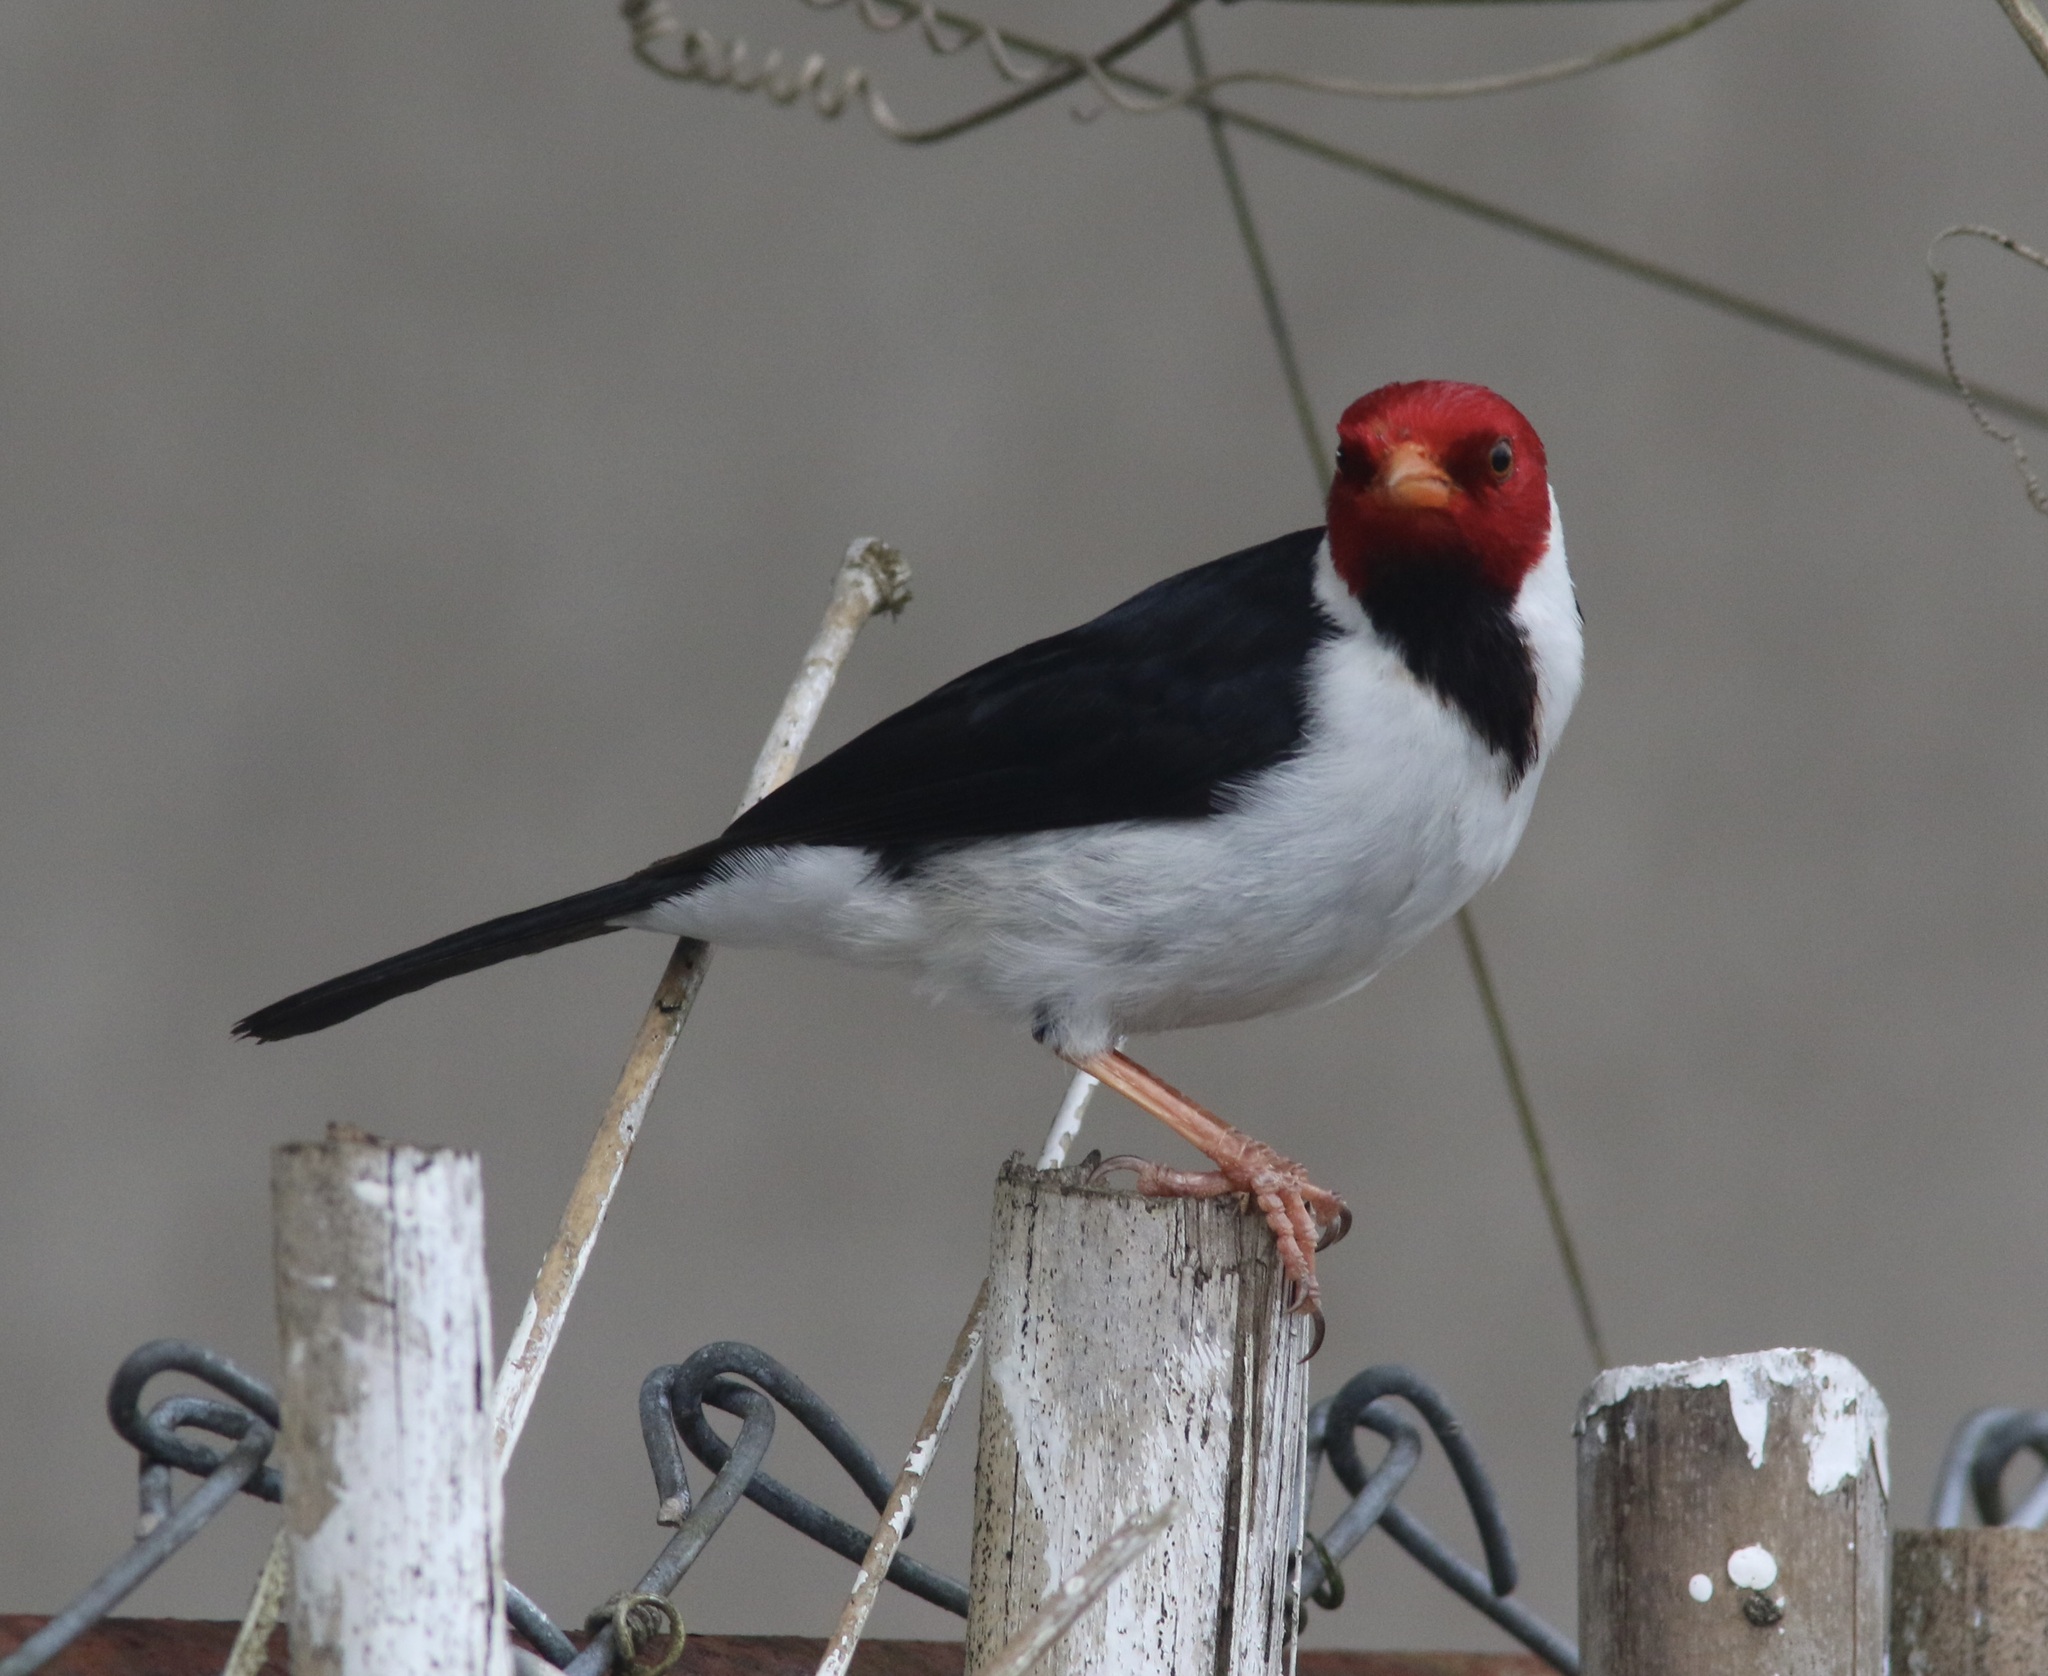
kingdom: Animalia
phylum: Chordata
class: Aves
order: Passeriformes
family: Thraupidae
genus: Paroaria
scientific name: Paroaria capitata
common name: Yellow-billed cardinal
